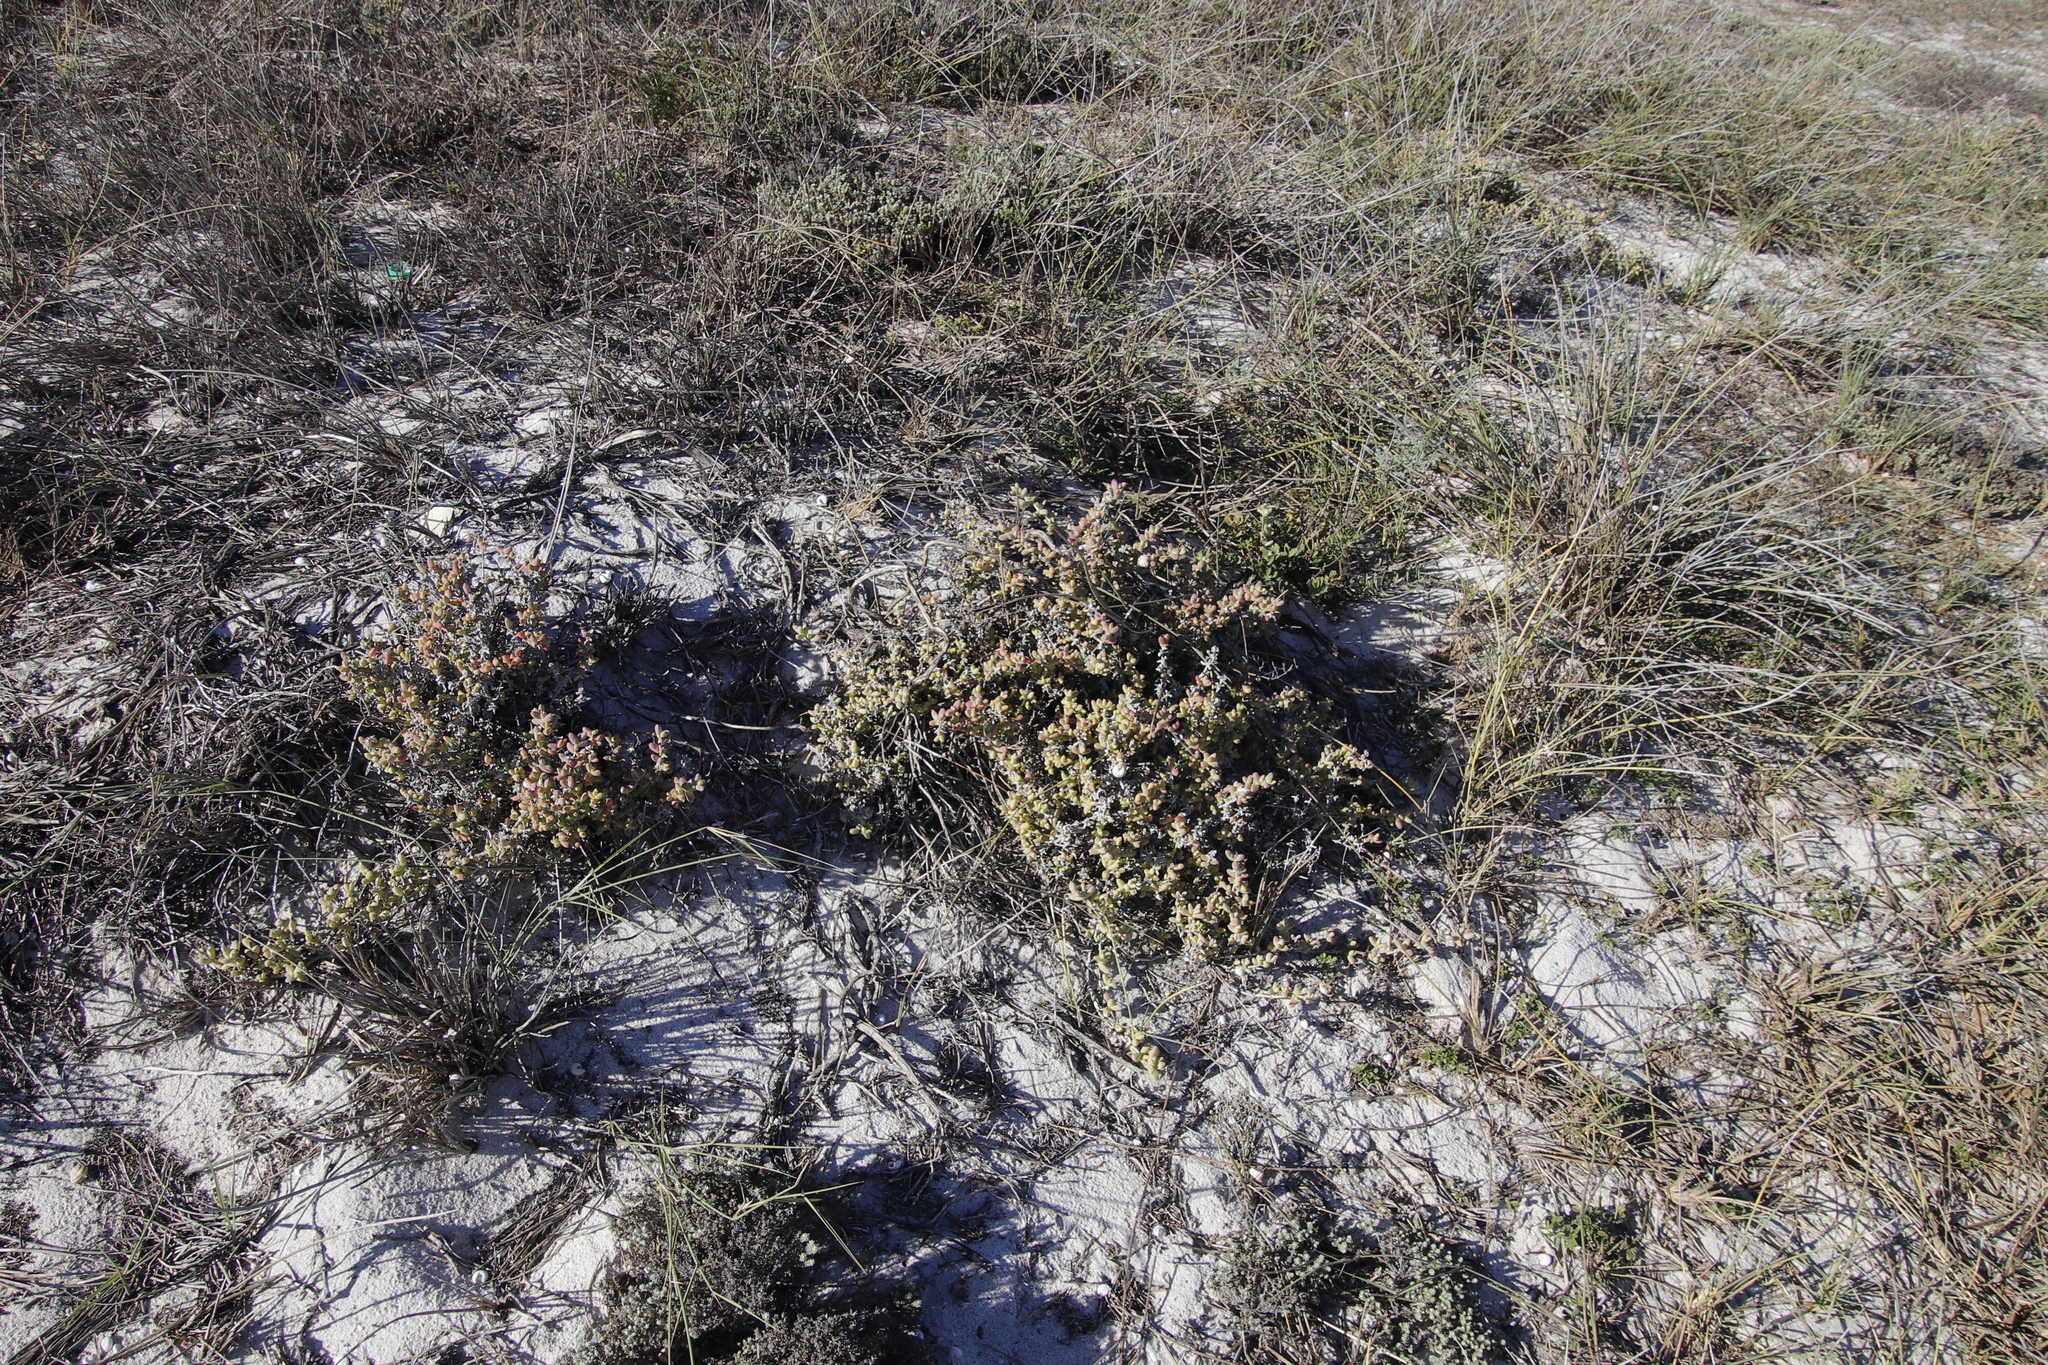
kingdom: Plantae
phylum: Tracheophyta
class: Magnoliopsida
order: Caryophyllales
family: Aizoaceae
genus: Amphibolia
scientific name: Amphibolia laevis
